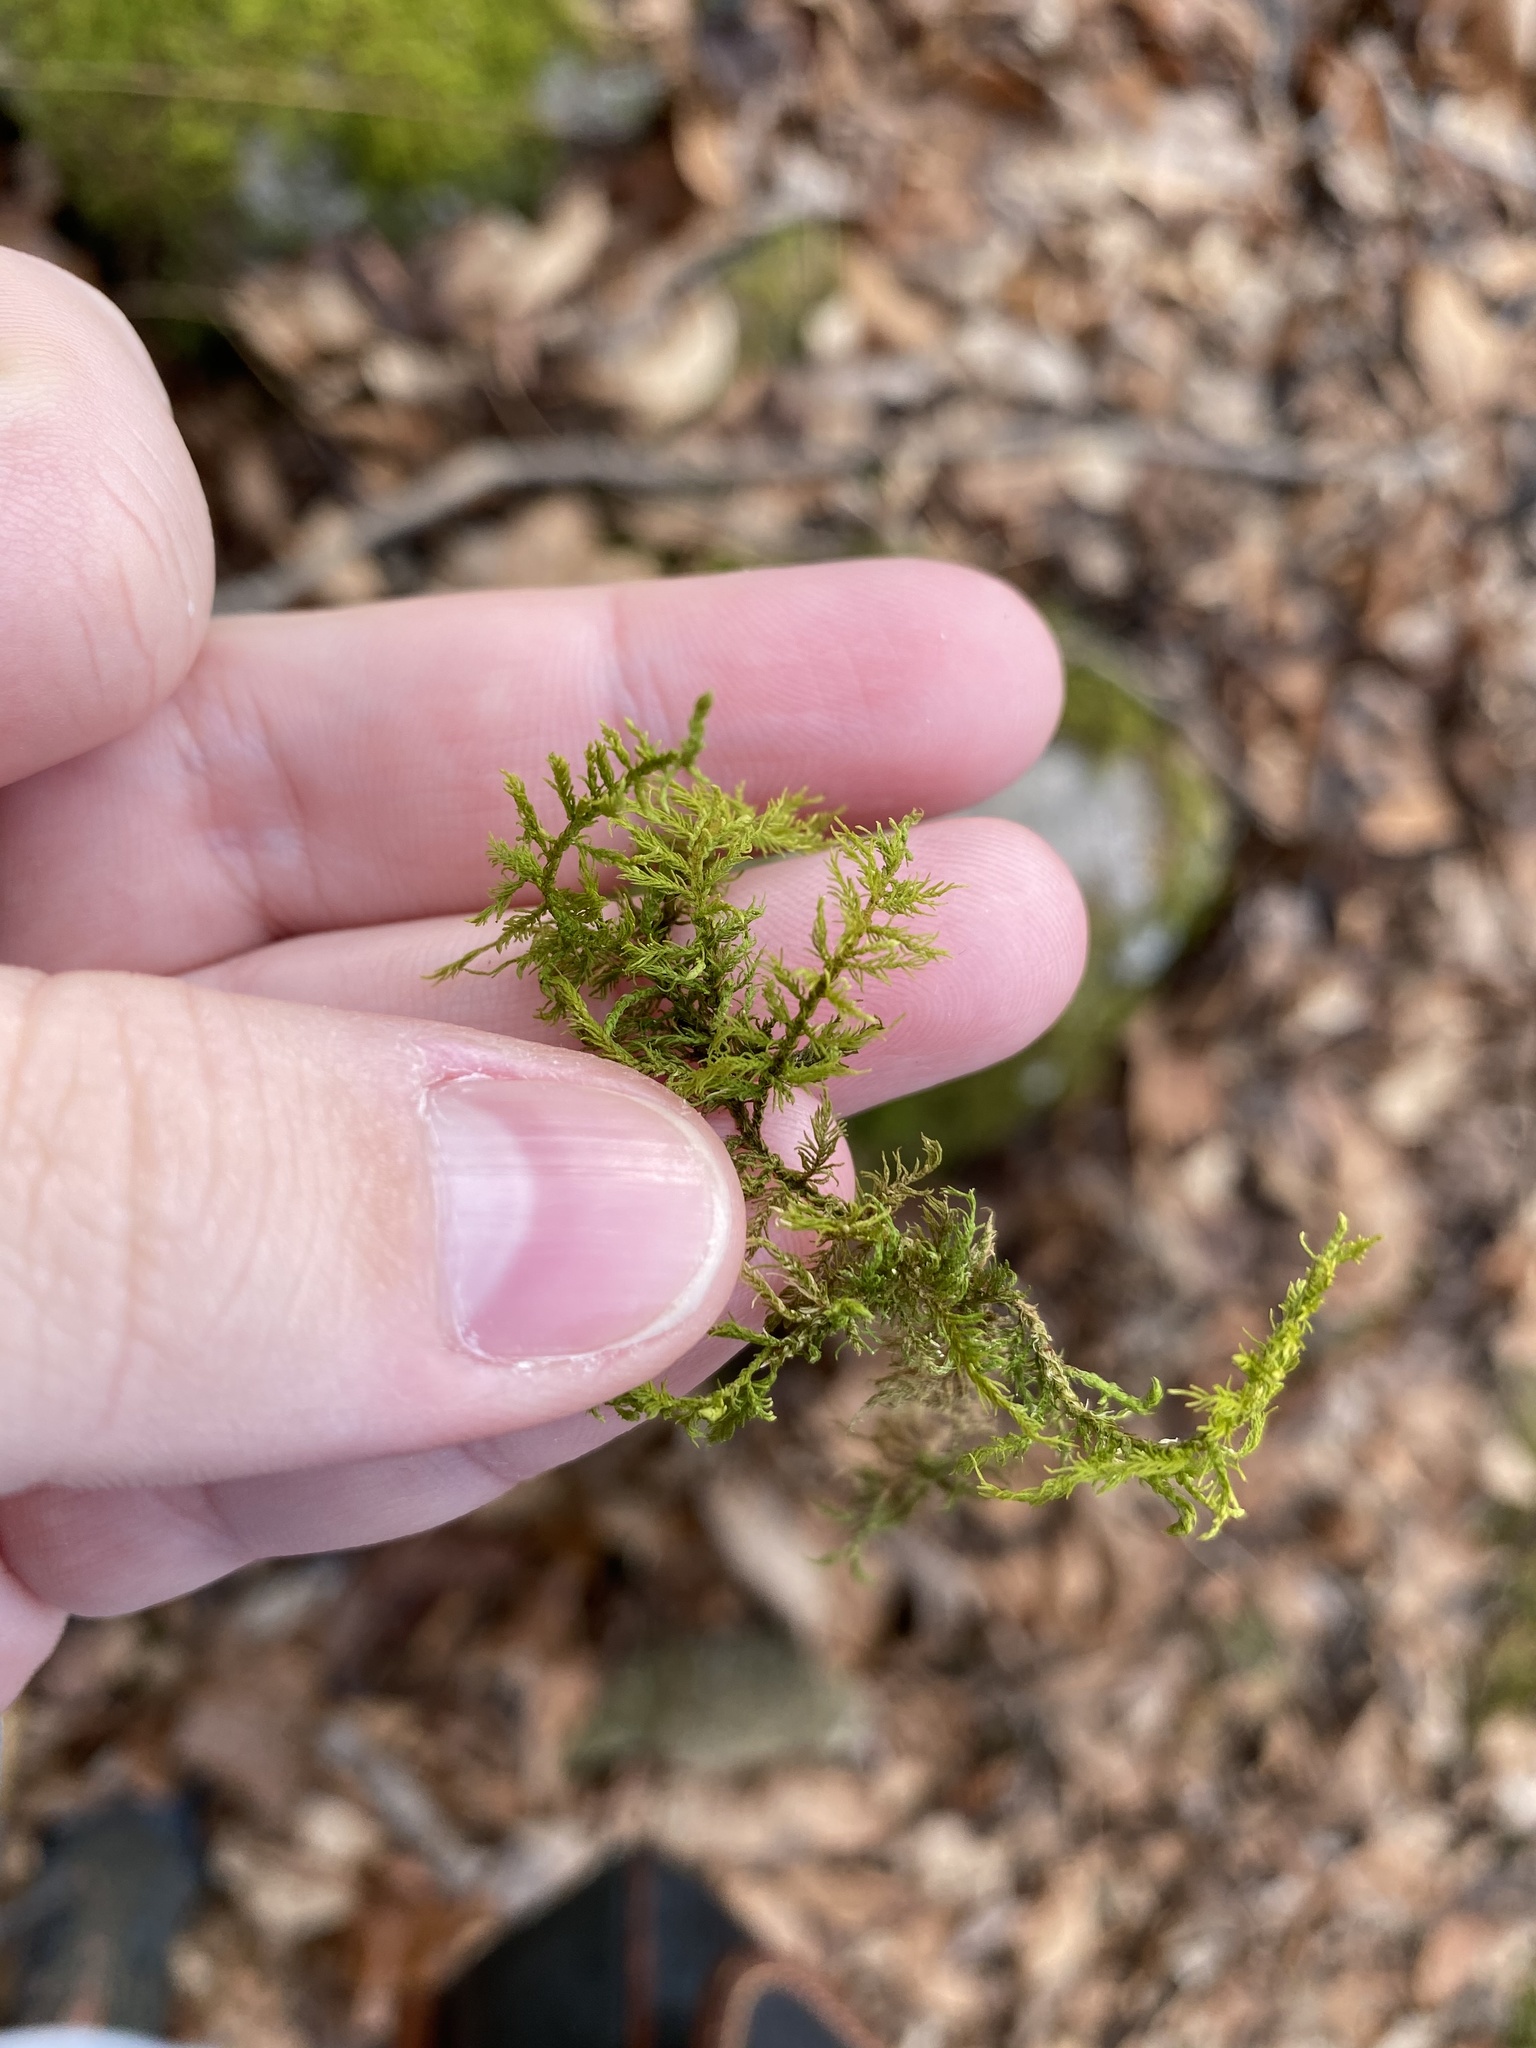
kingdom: Plantae
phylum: Bryophyta
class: Bryopsida
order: Hypnales
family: Thuidiaceae
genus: Thuidium
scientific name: Thuidium delicatulum
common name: Delicate fern moss
